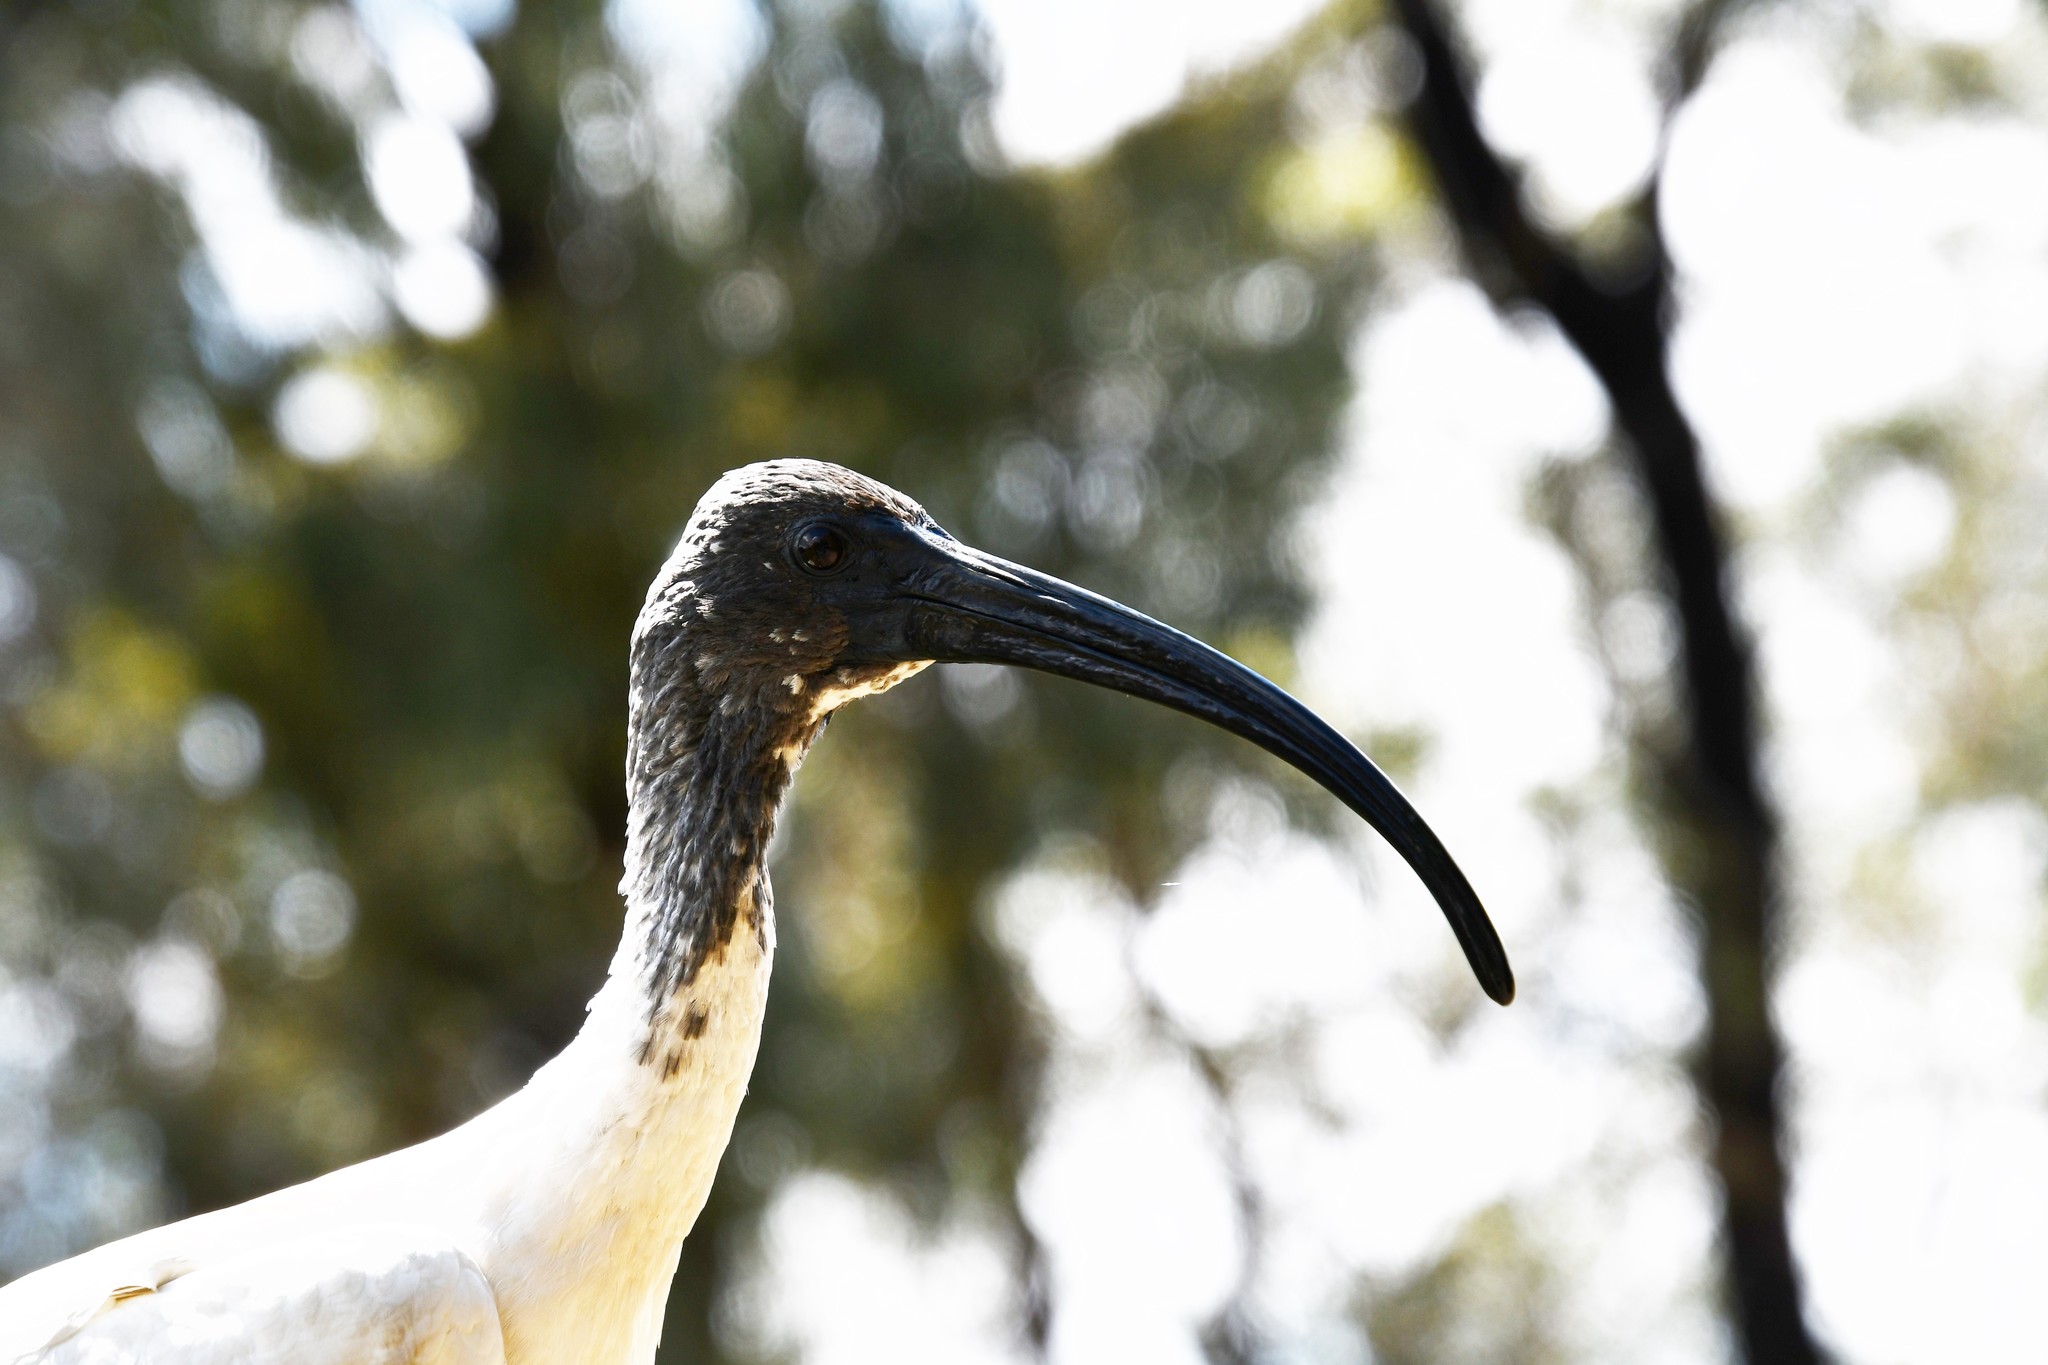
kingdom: Animalia
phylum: Chordata
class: Aves
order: Pelecaniformes
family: Threskiornithidae
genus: Threskiornis
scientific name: Threskiornis molucca
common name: Australian white ibis
